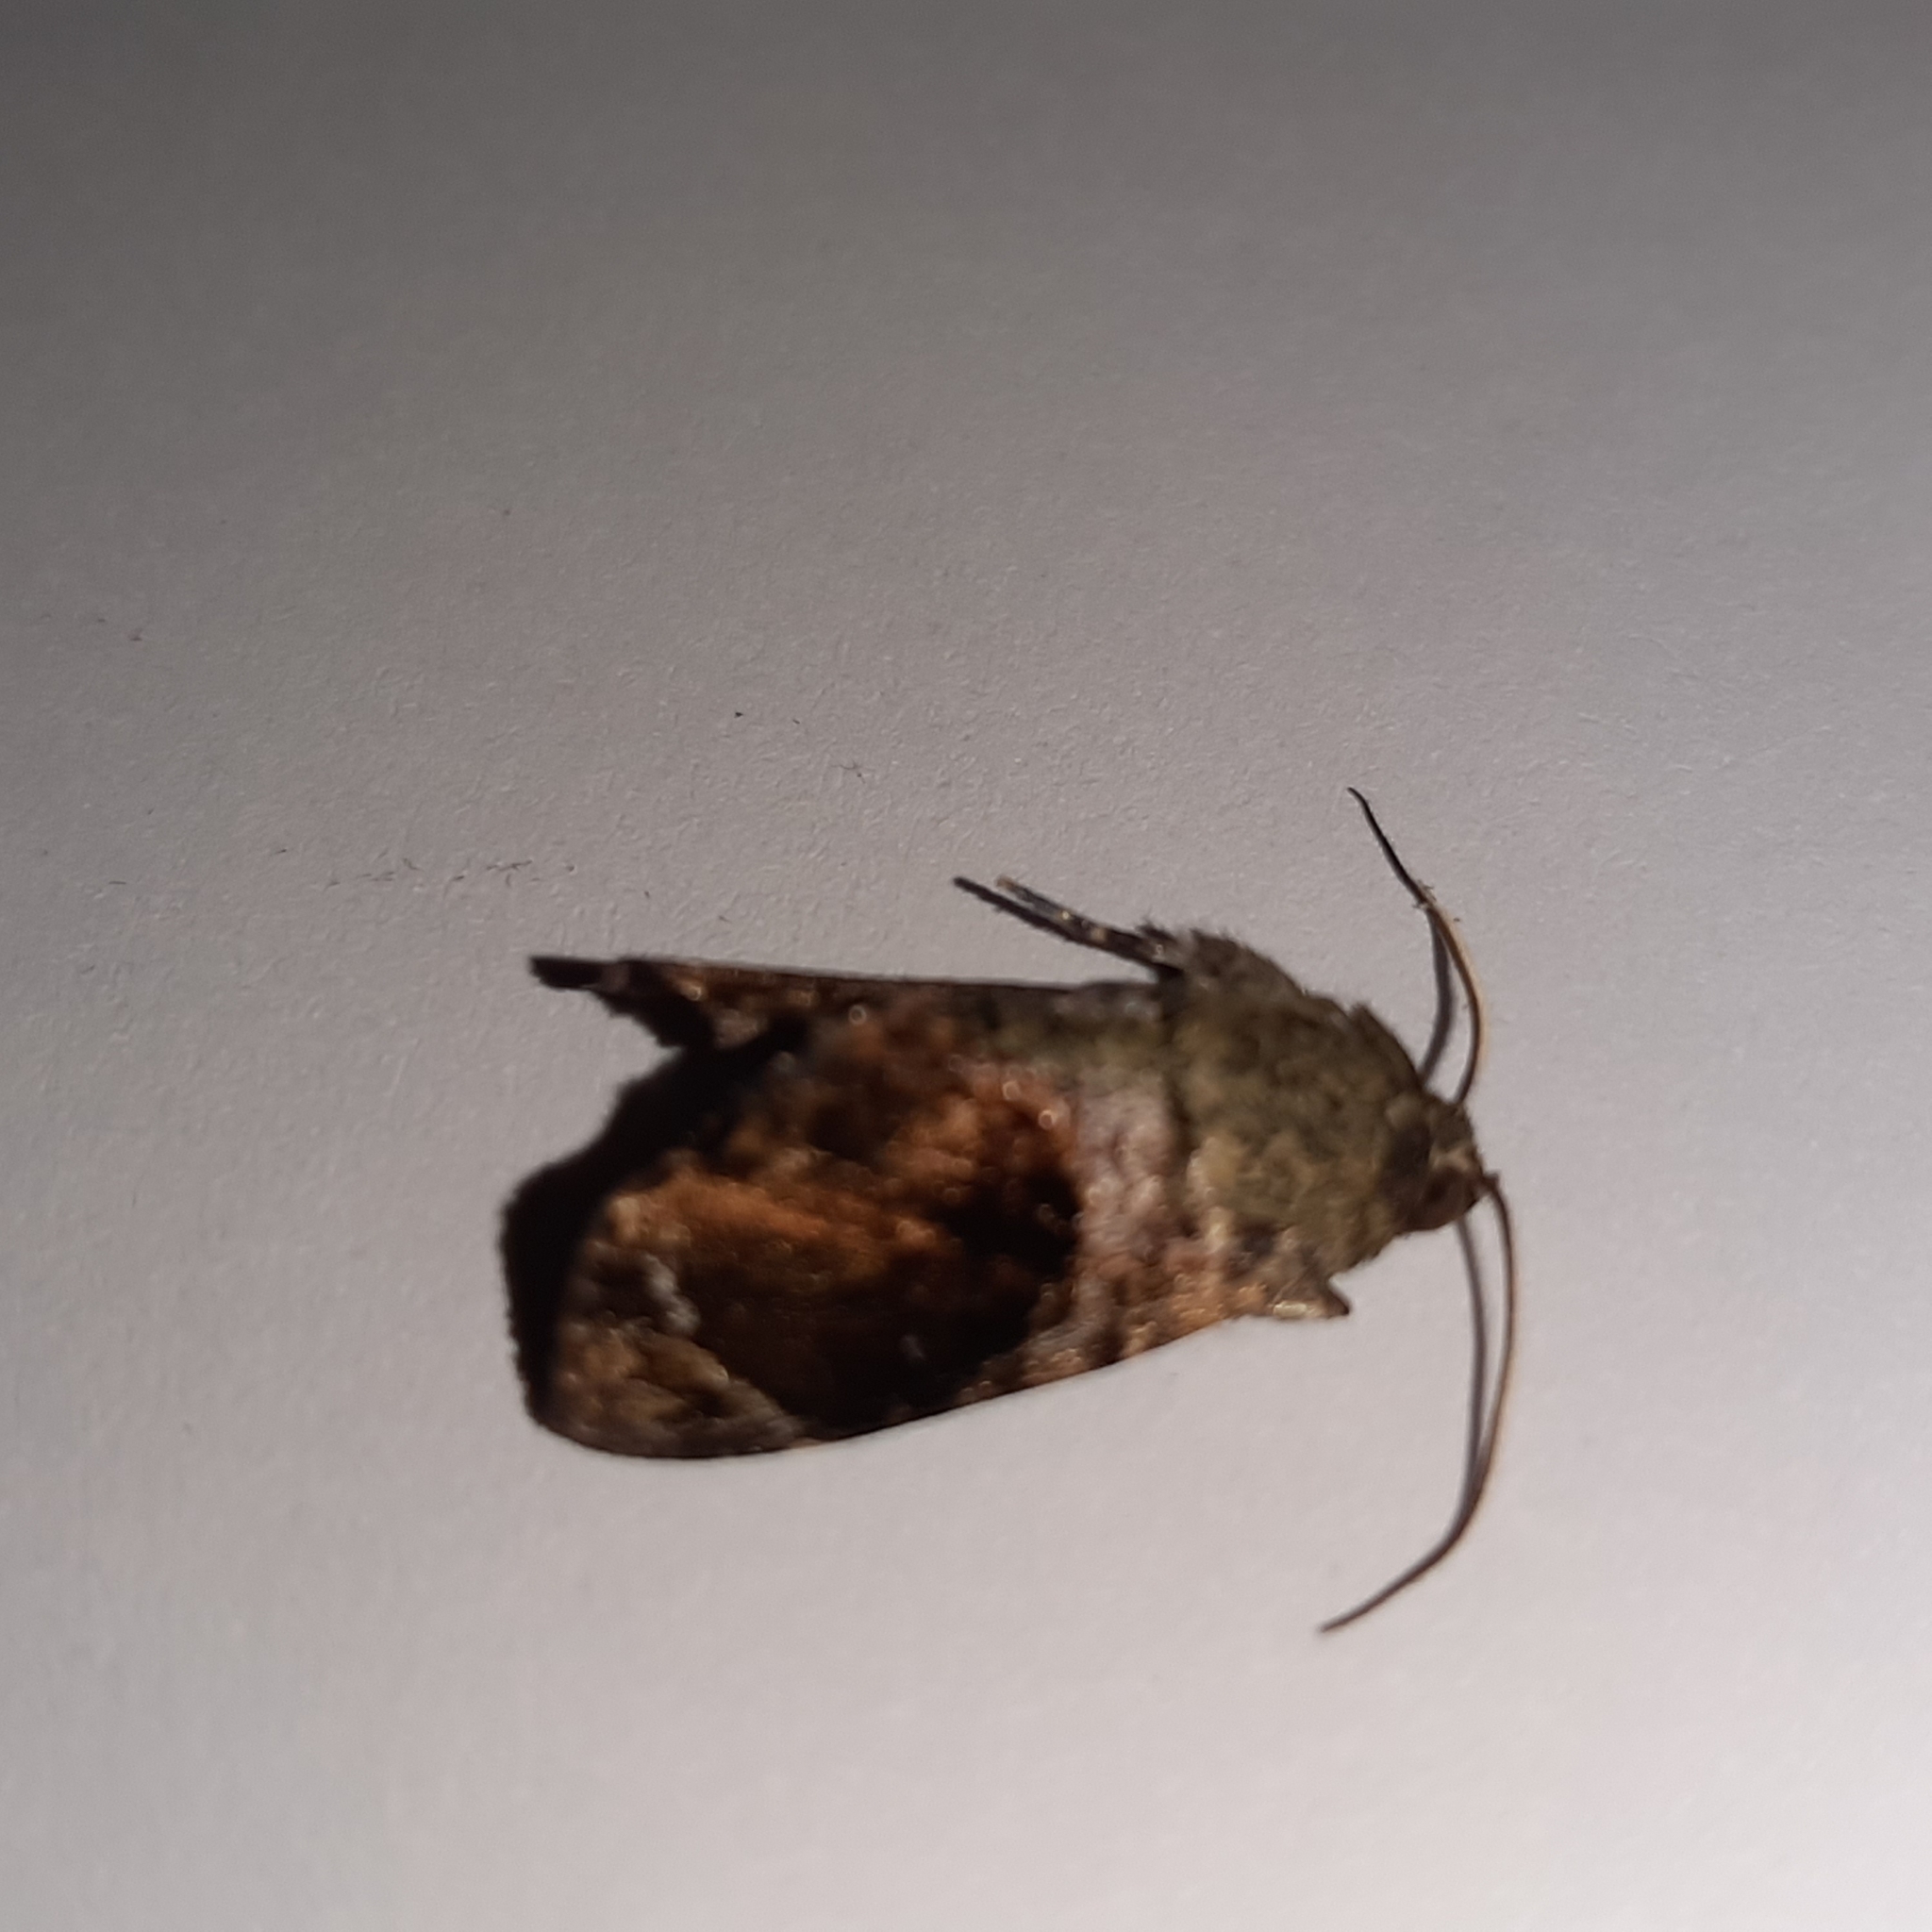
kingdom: Animalia
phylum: Arthropoda
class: Insecta
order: Lepidoptera
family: Noctuidae
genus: Drobeta
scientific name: Drobeta melagonia
